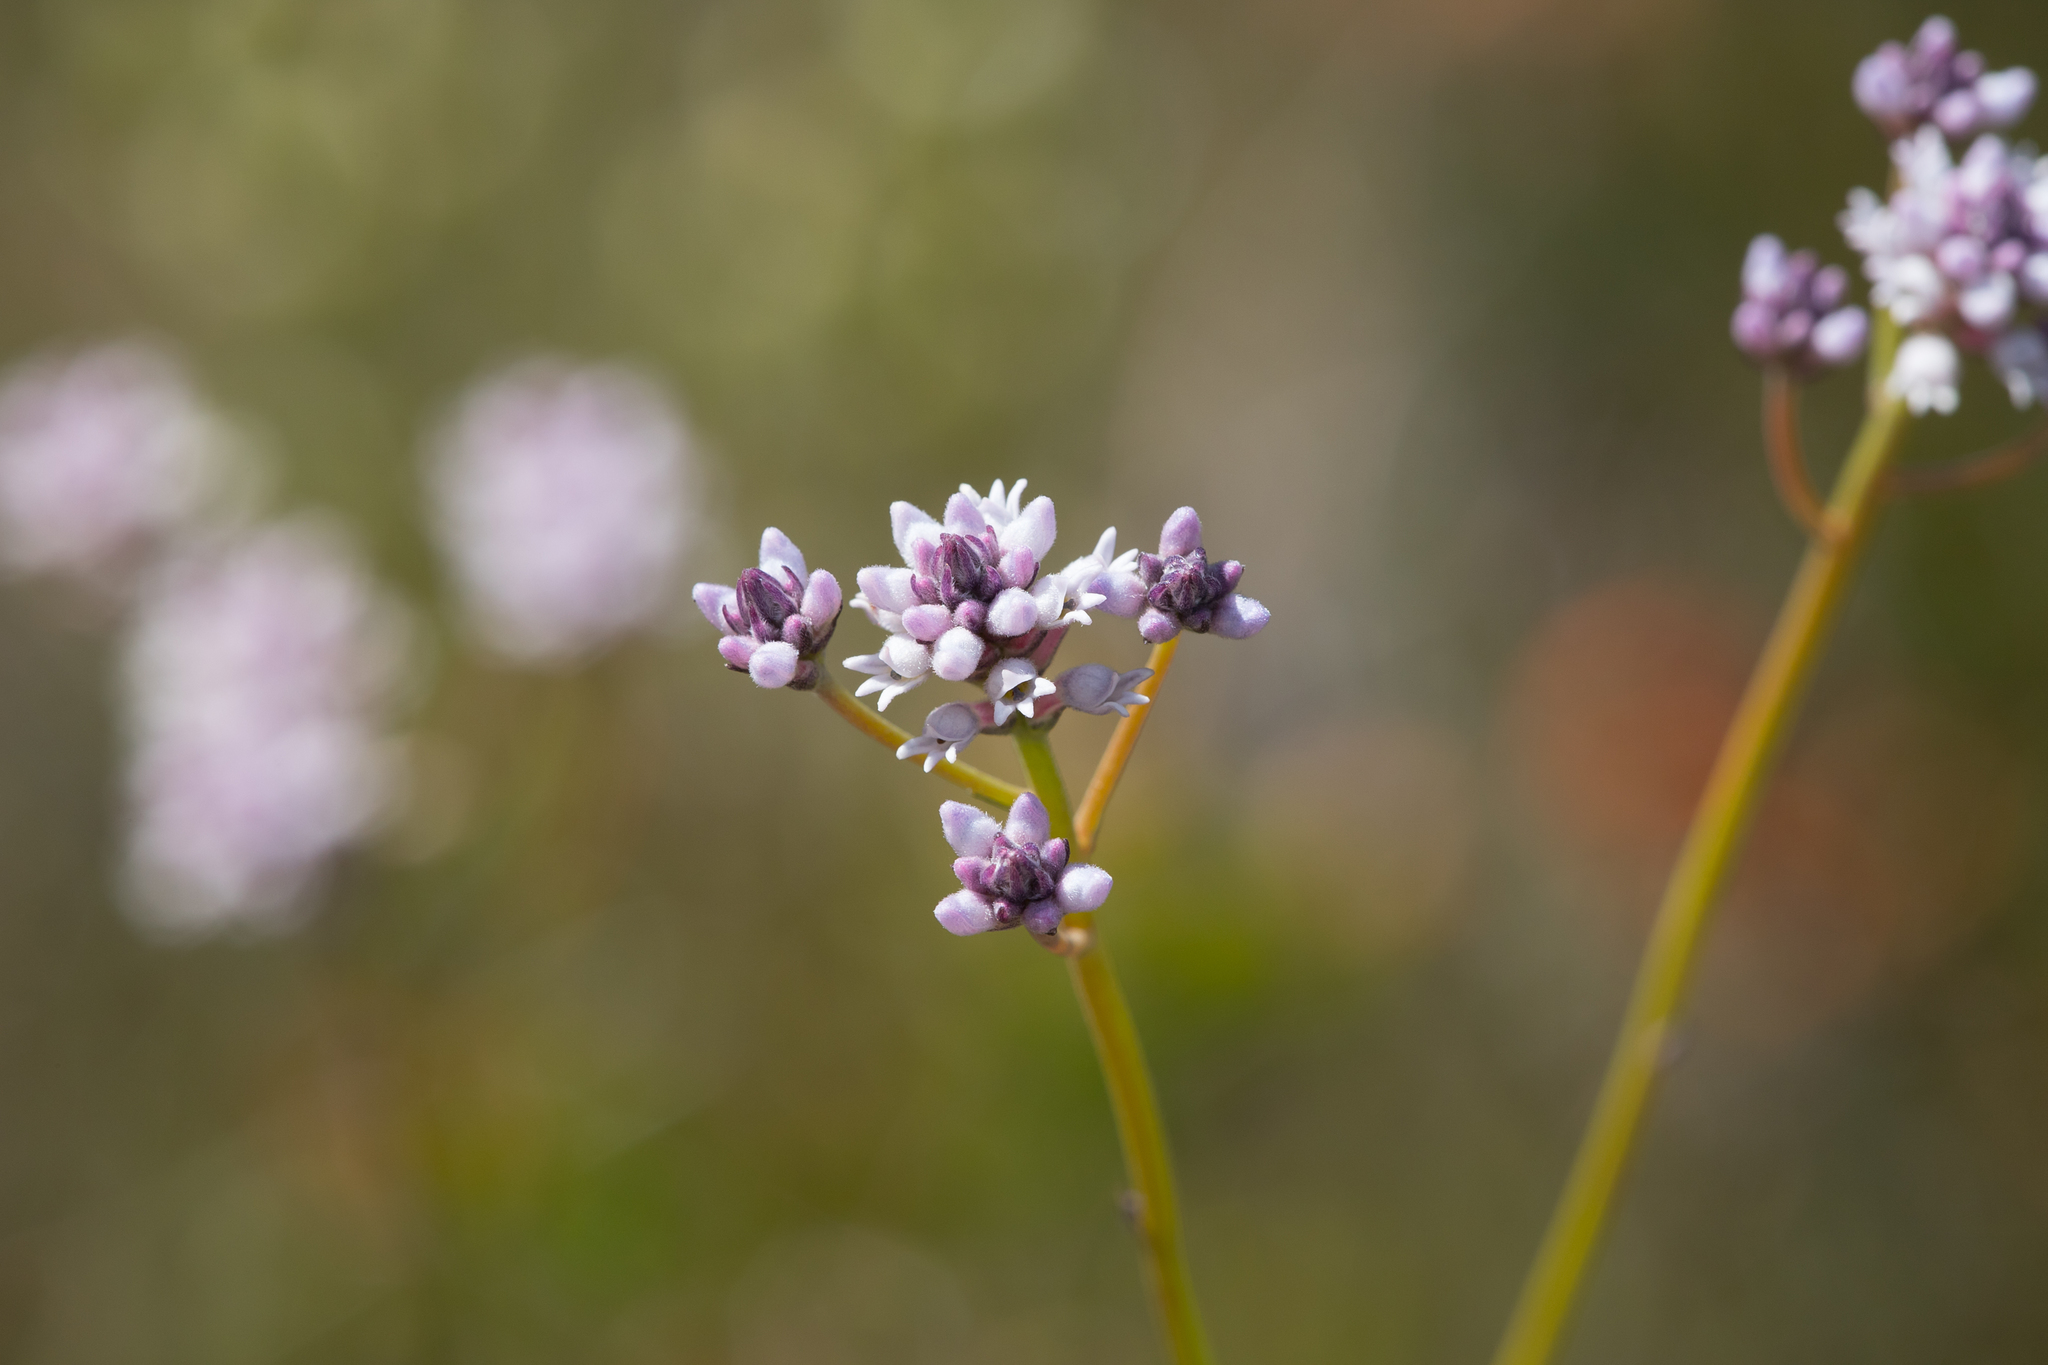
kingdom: Plantae
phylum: Tracheophyta
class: Magnoliopsida
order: Proteales
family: Proteaceae
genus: Conospermum
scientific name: Conospermum patens
